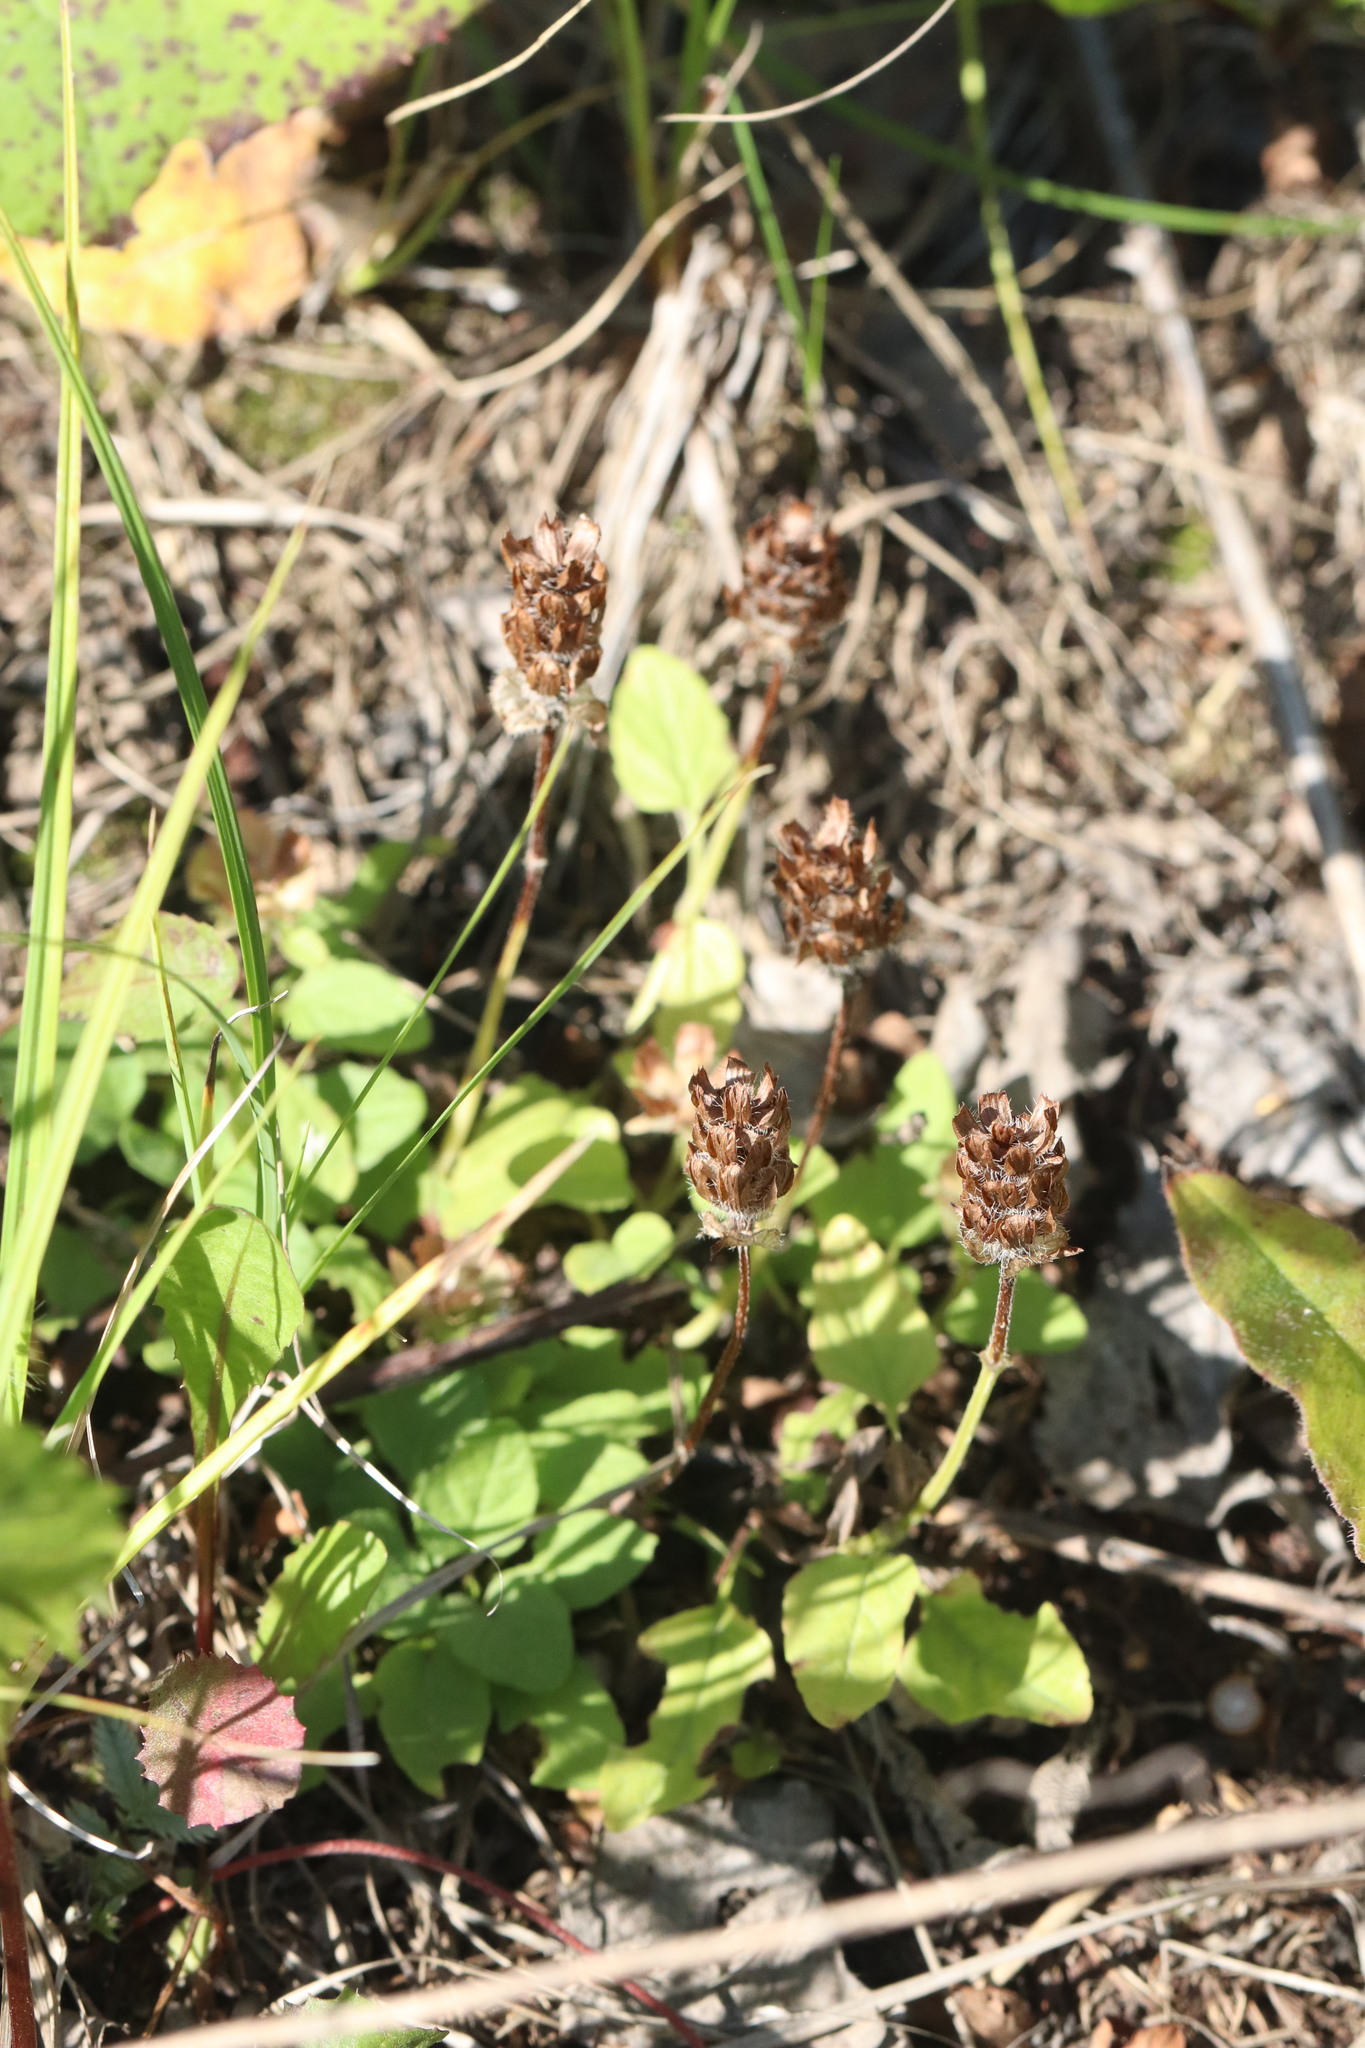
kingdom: Plantae
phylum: Tracheophyta
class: Magnoliopsida
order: Lamiales
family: Lamiaceae
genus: Prunella
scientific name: Prunella vulgaris
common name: Heal-all
